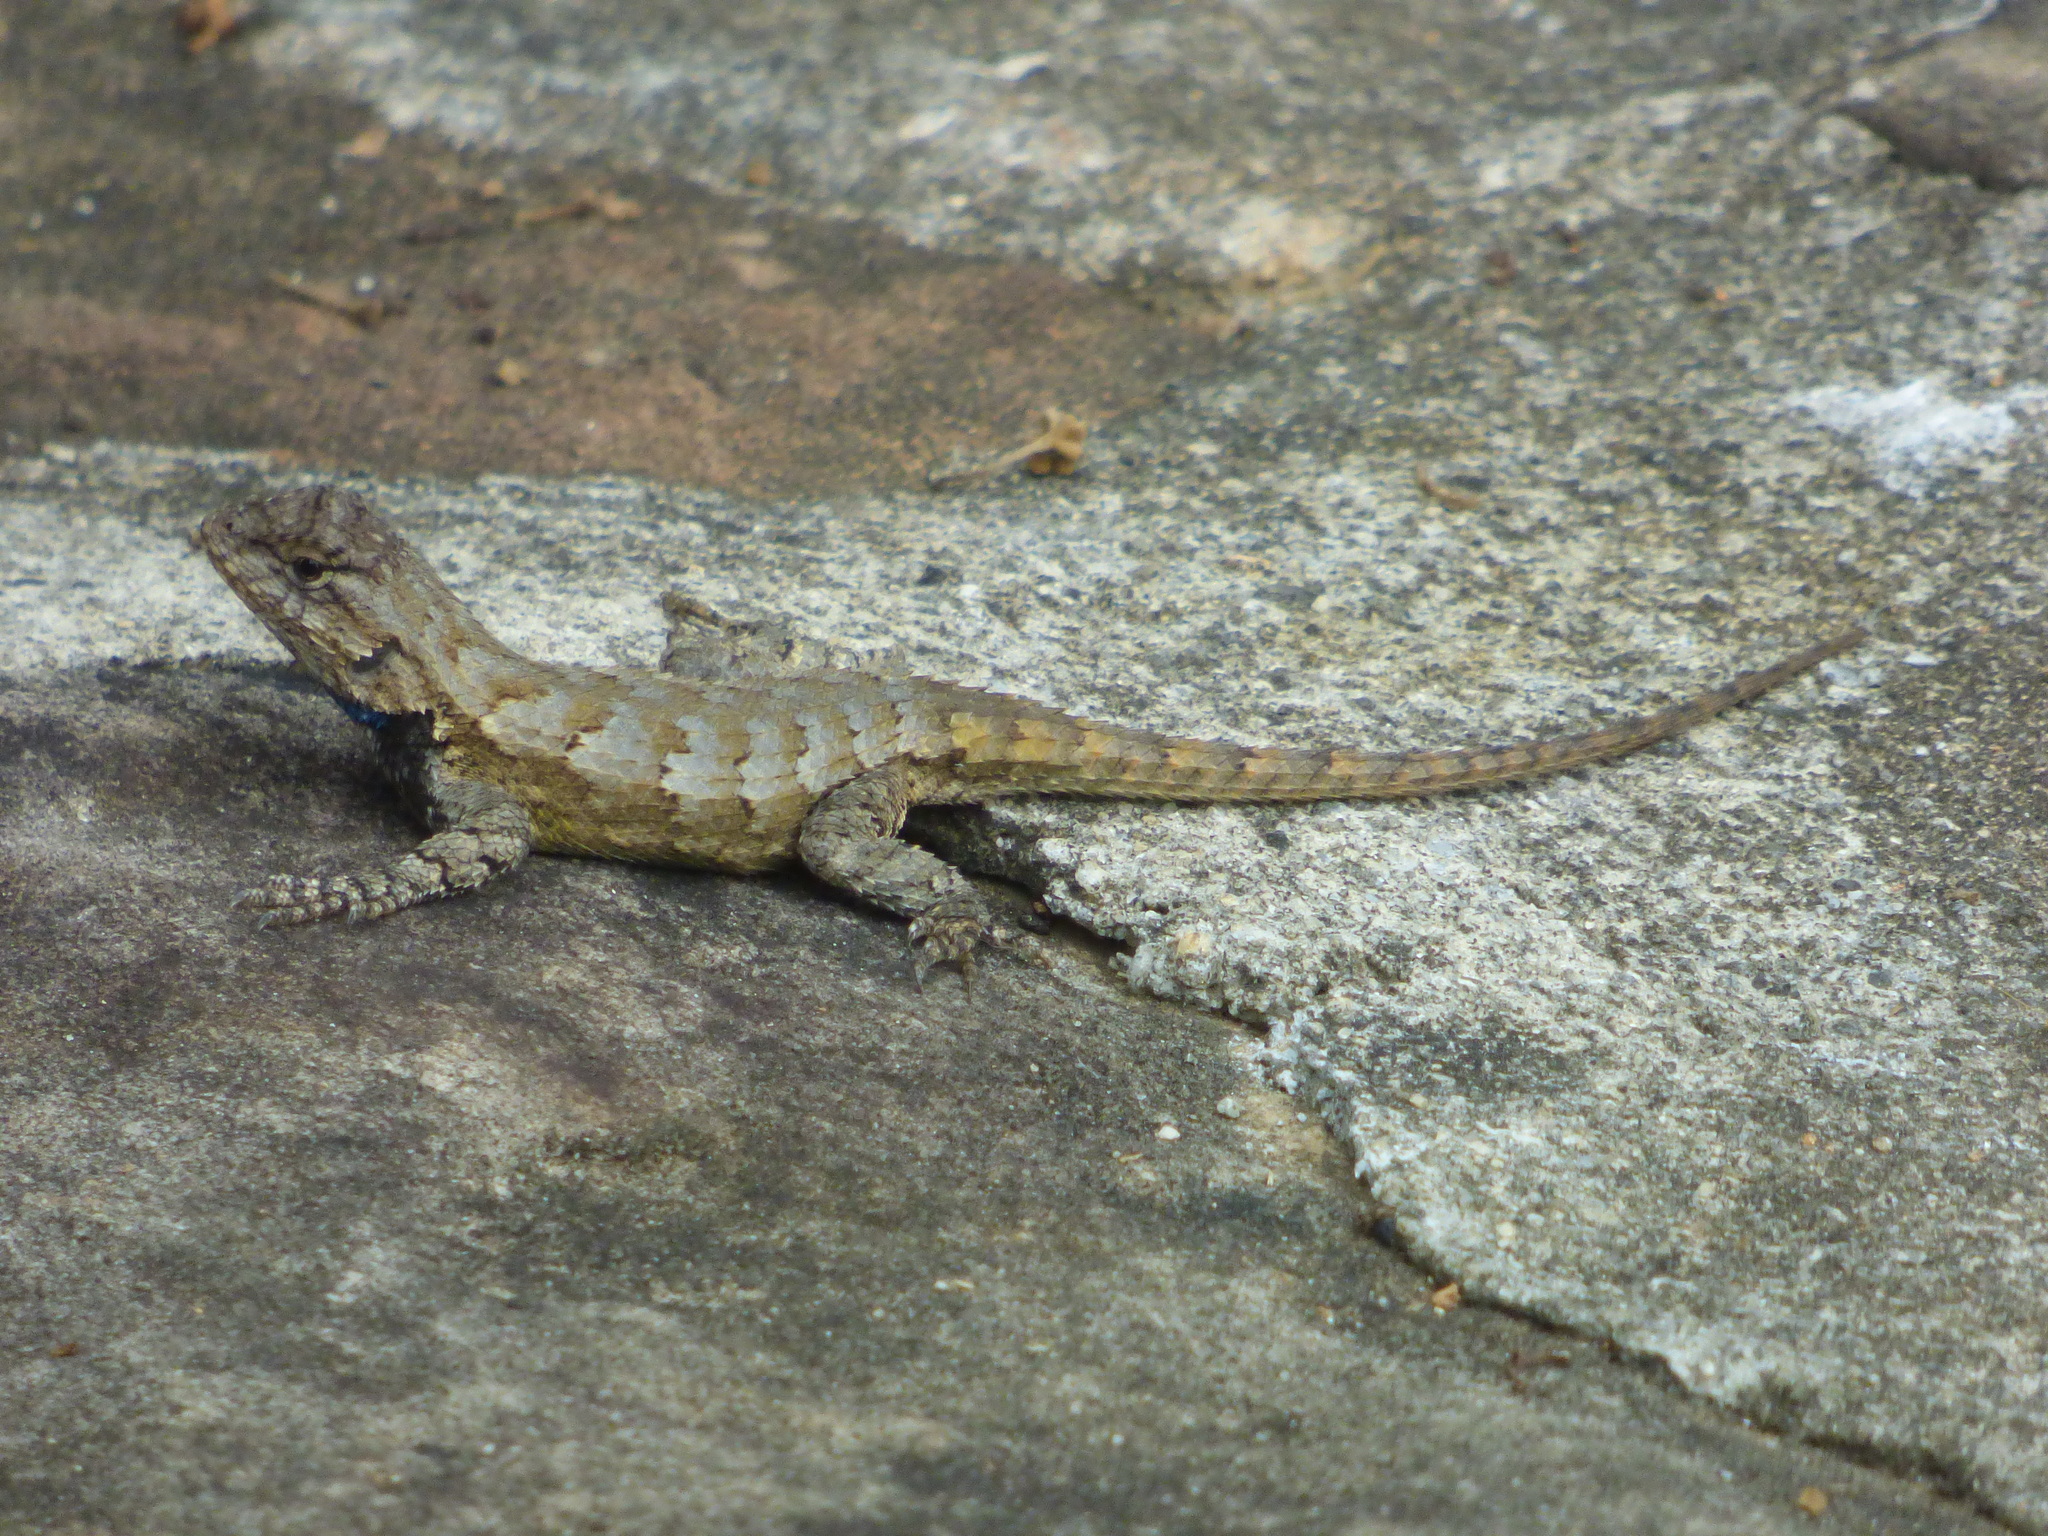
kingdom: Animalia
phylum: Chordata
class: Squamata
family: Phrynosomatidae
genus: Sceloporus
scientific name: Sceloporus undulatus
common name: Eastern fence lizard
